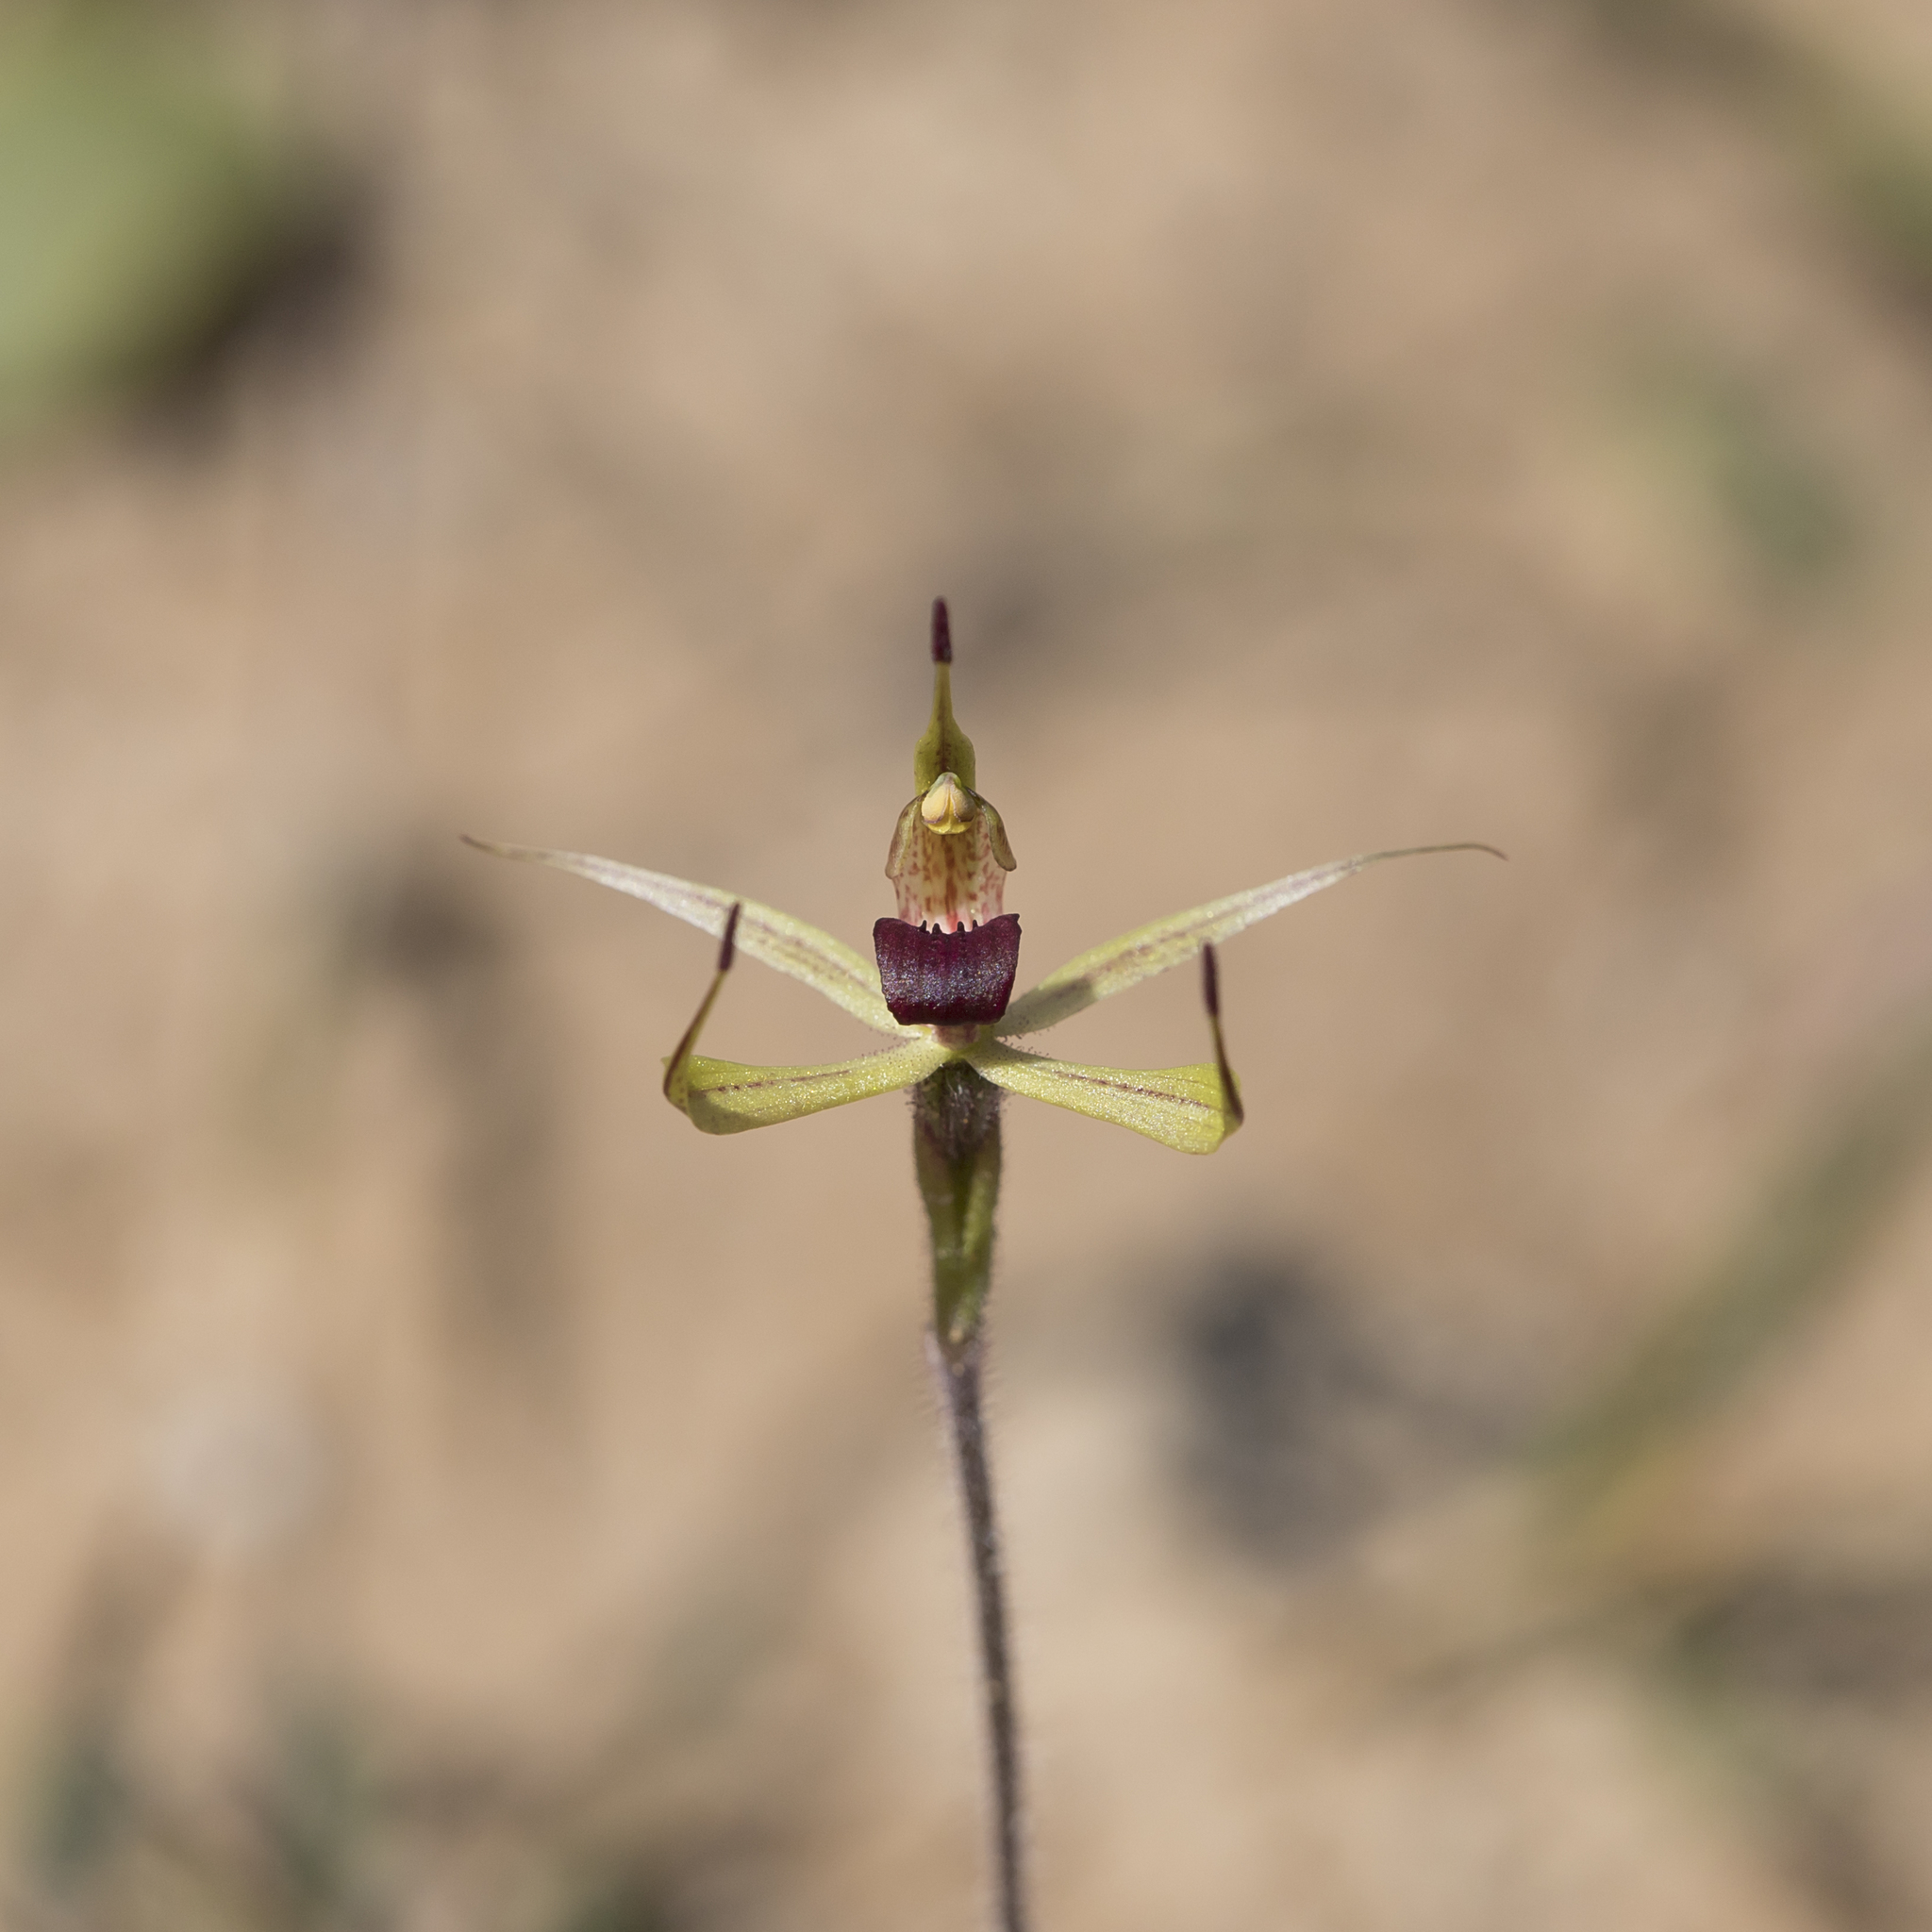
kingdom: Plantae
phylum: Tracheophyta
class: Liliopsida
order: Asparagales
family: Orchidaceae
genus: Caladenia
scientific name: Caladenia leptochila
